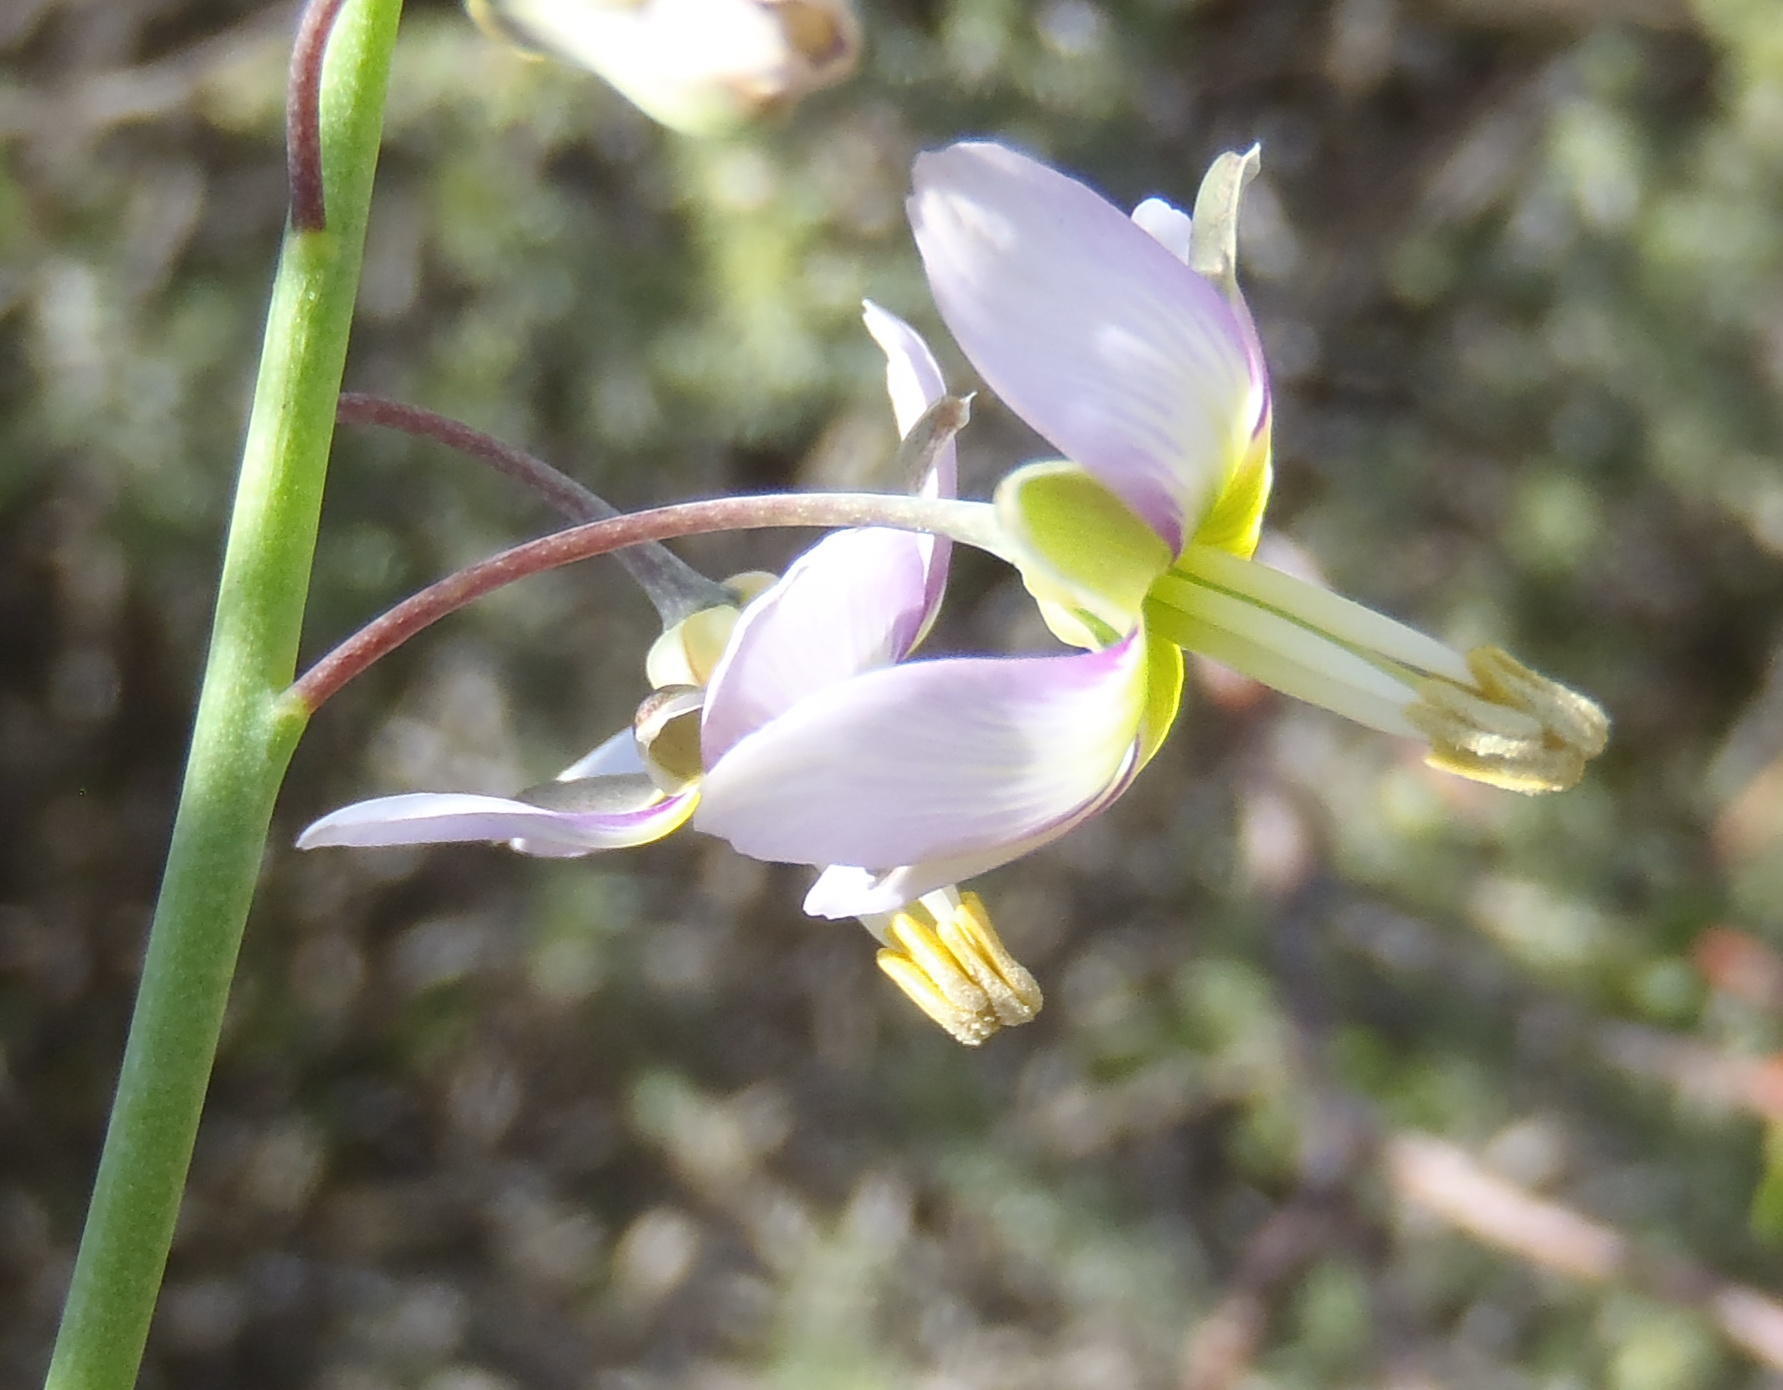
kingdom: Plantae
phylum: Tracheophyta
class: Magnoliopsida
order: Brassicales
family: Brassicaceae
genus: Heliophila
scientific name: Heliophila cornuta
